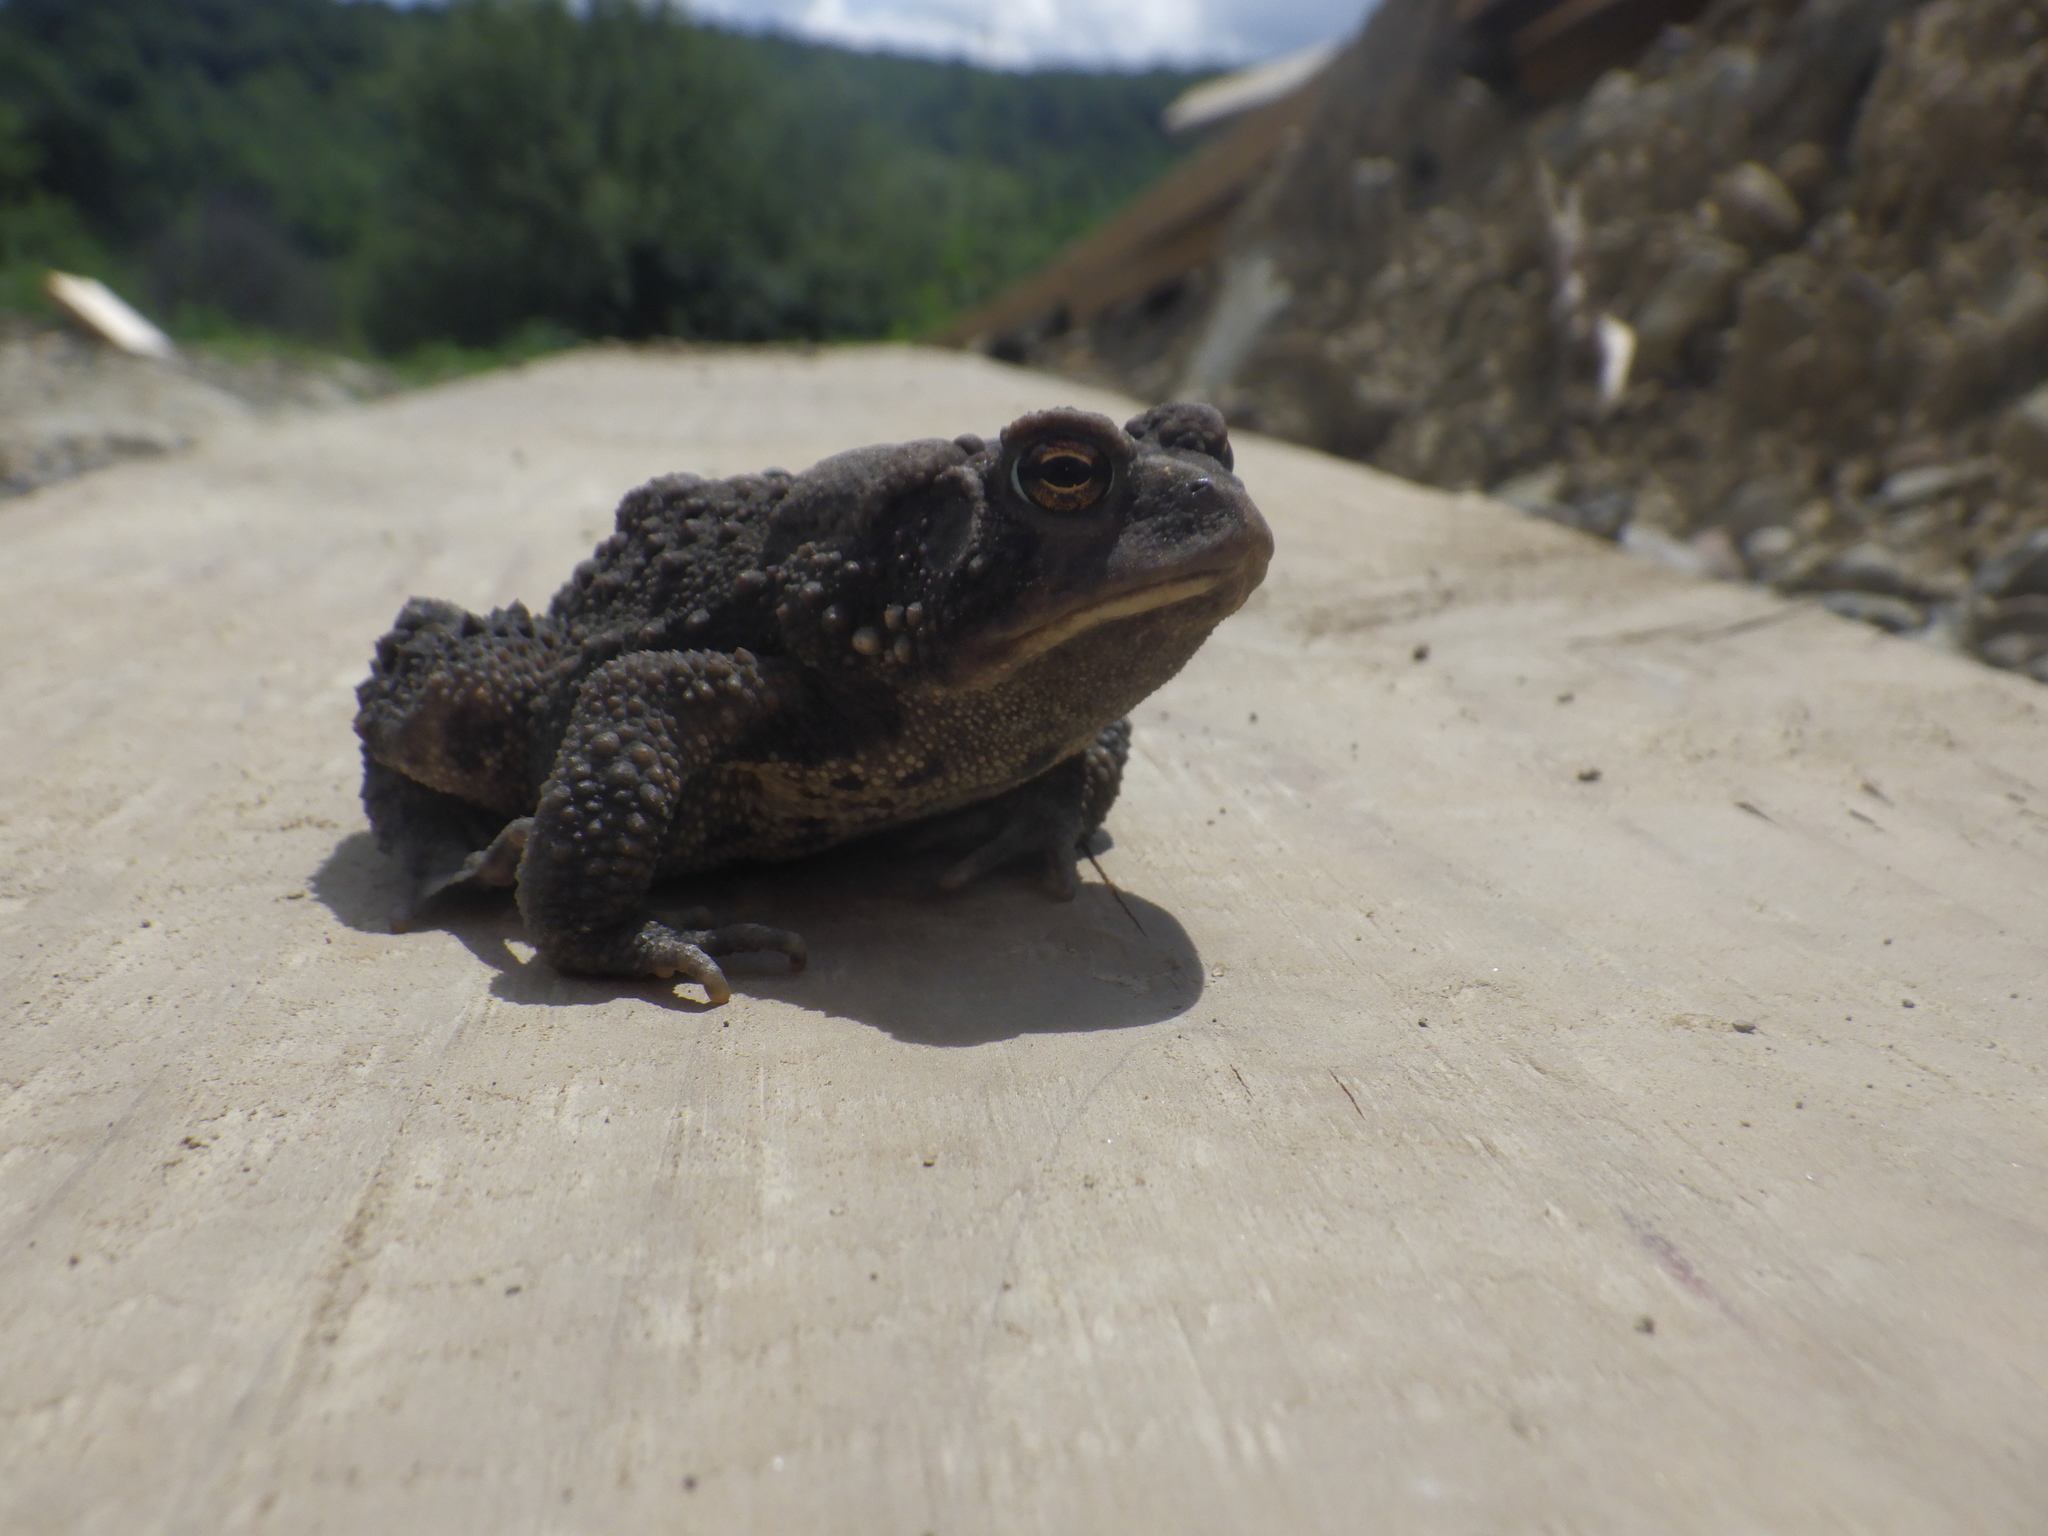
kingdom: Animalia
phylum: Chordata
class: Amphibia
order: Anura
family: Bufonidae
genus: Anaxyrus
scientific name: Anaxyrus americanus
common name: American toad
